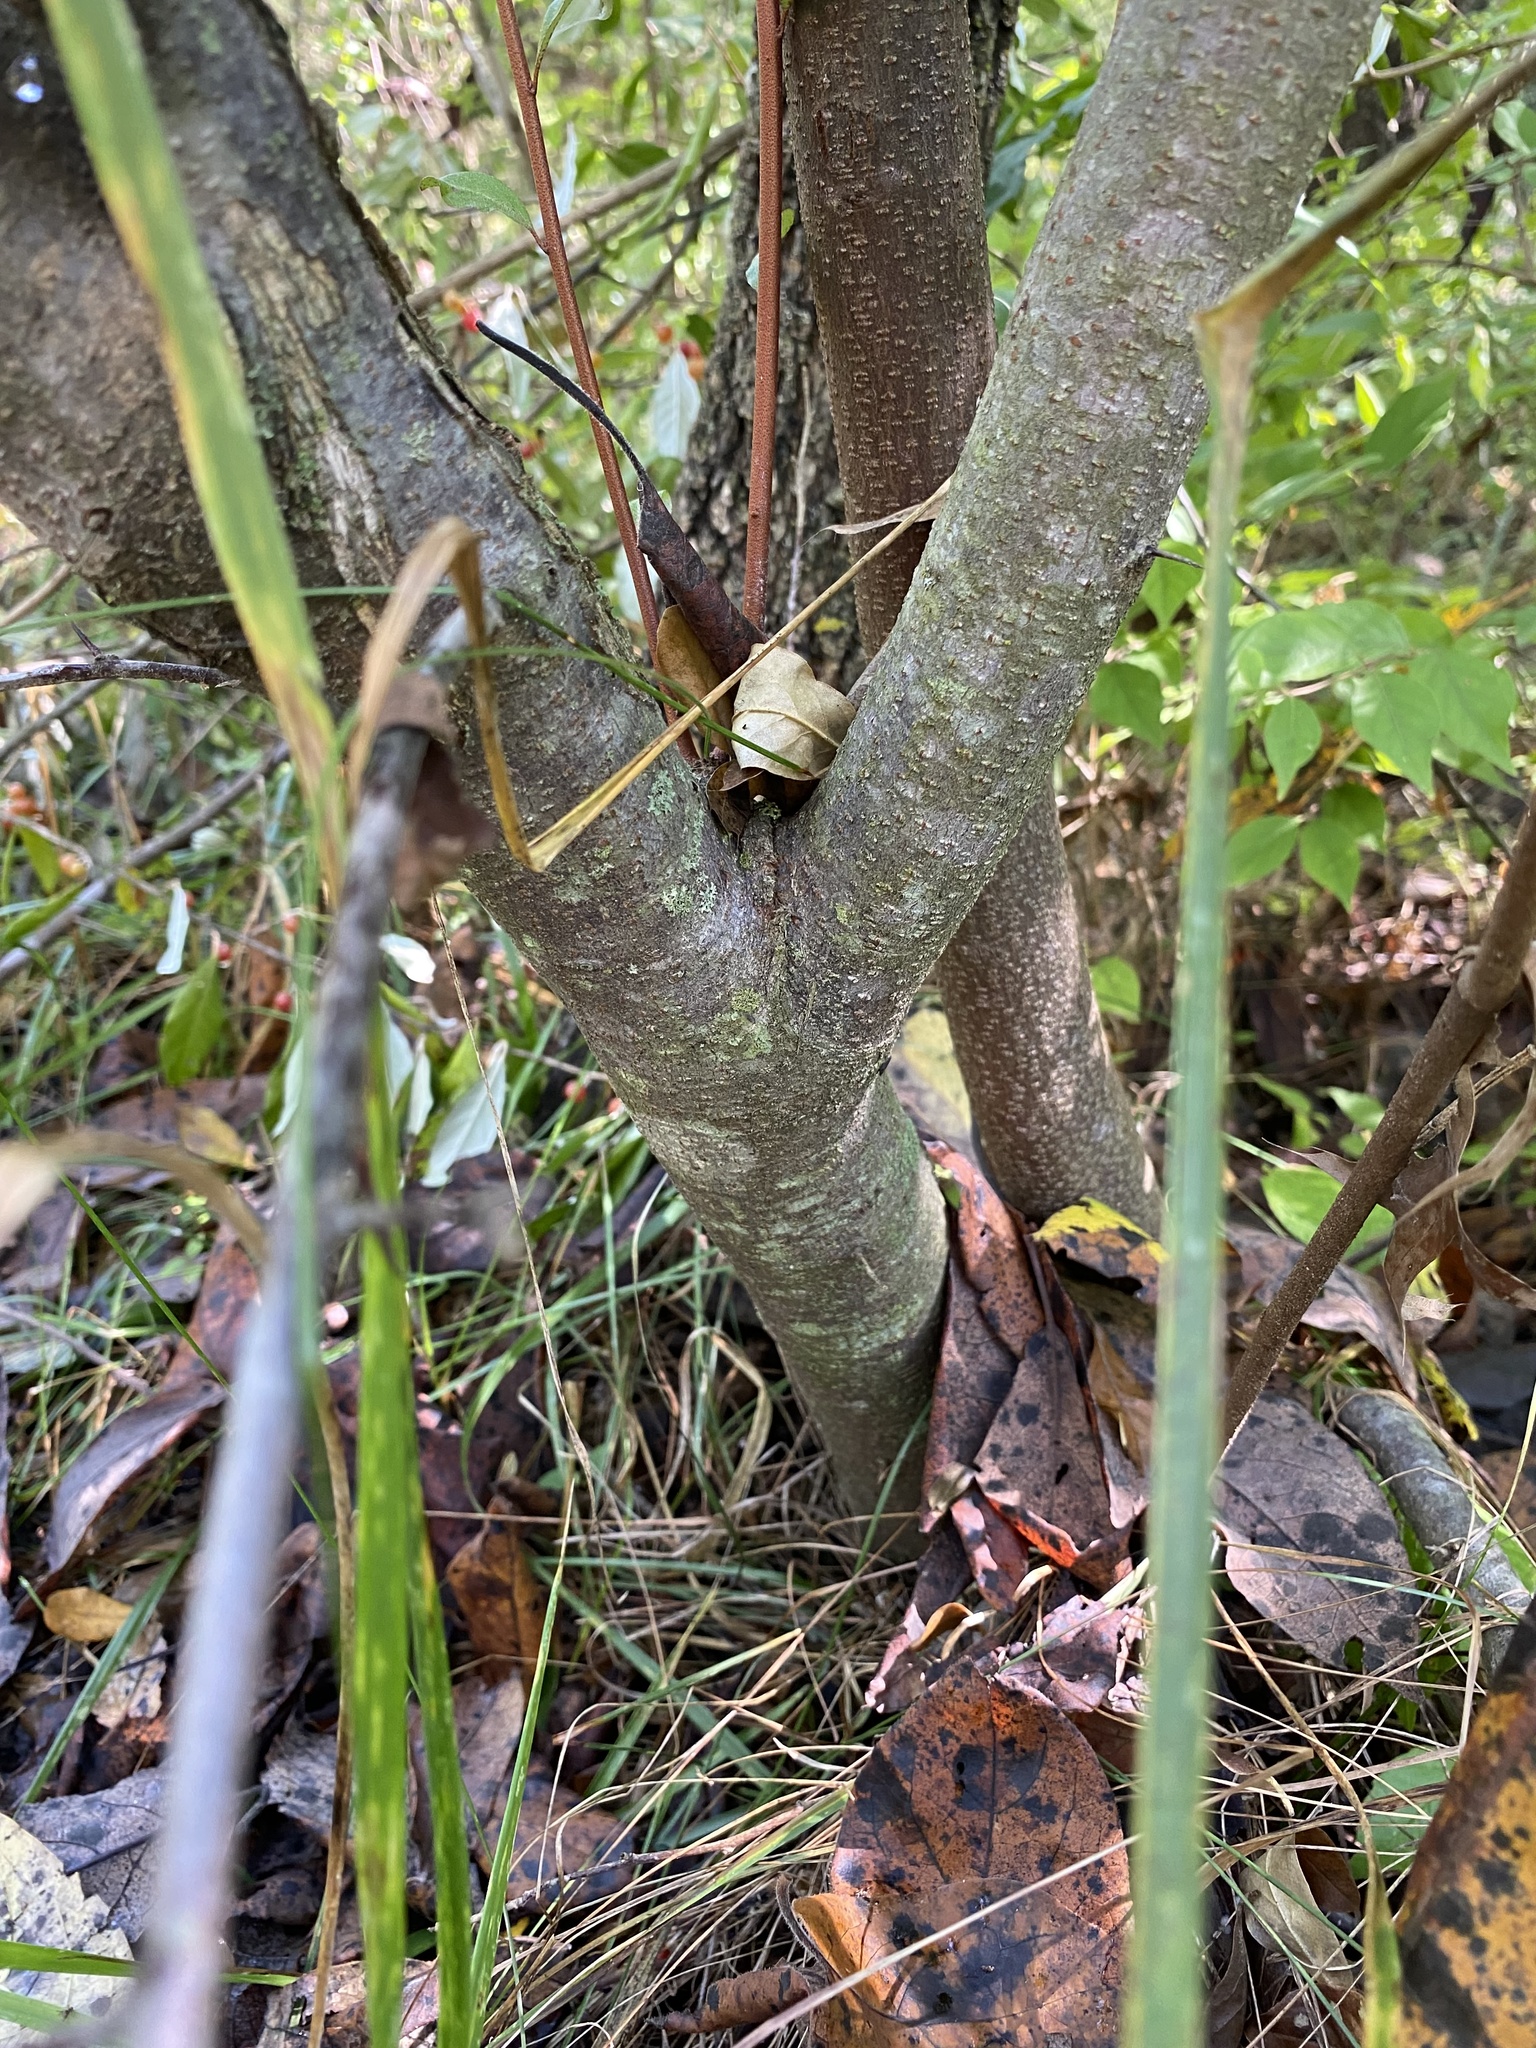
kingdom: Plantae
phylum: Tracheophyta
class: Magnoliopsida
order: Rosales
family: Elaeagnaceae
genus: Elaeagnus
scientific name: Elaeagnus umbellata
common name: Autumn olive
